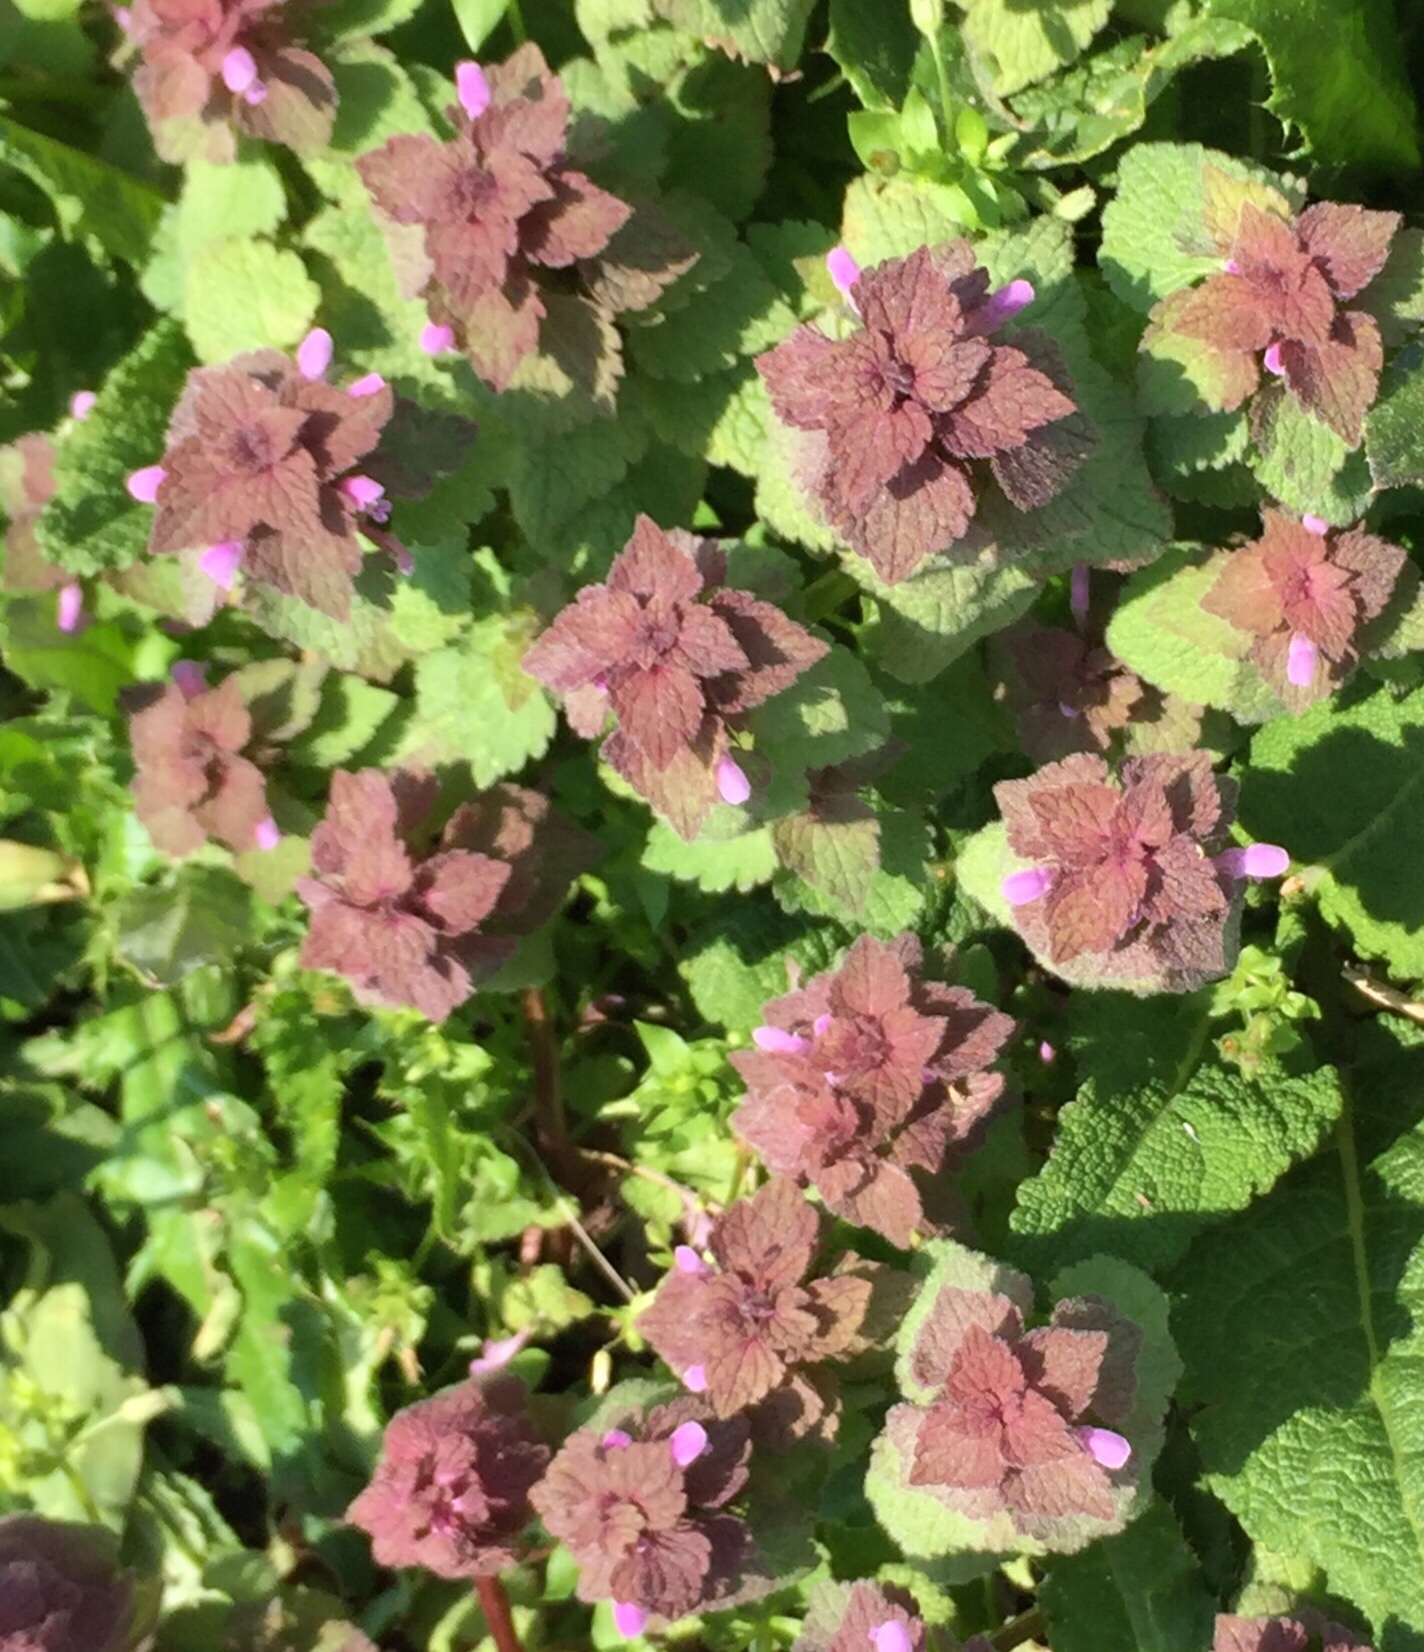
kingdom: Plantae
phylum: Tracheophyta
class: Magnoliopsida
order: Lamiales
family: Lamiaceae
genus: Lamium
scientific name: Lamium purpureum
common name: Red dead-nettle
